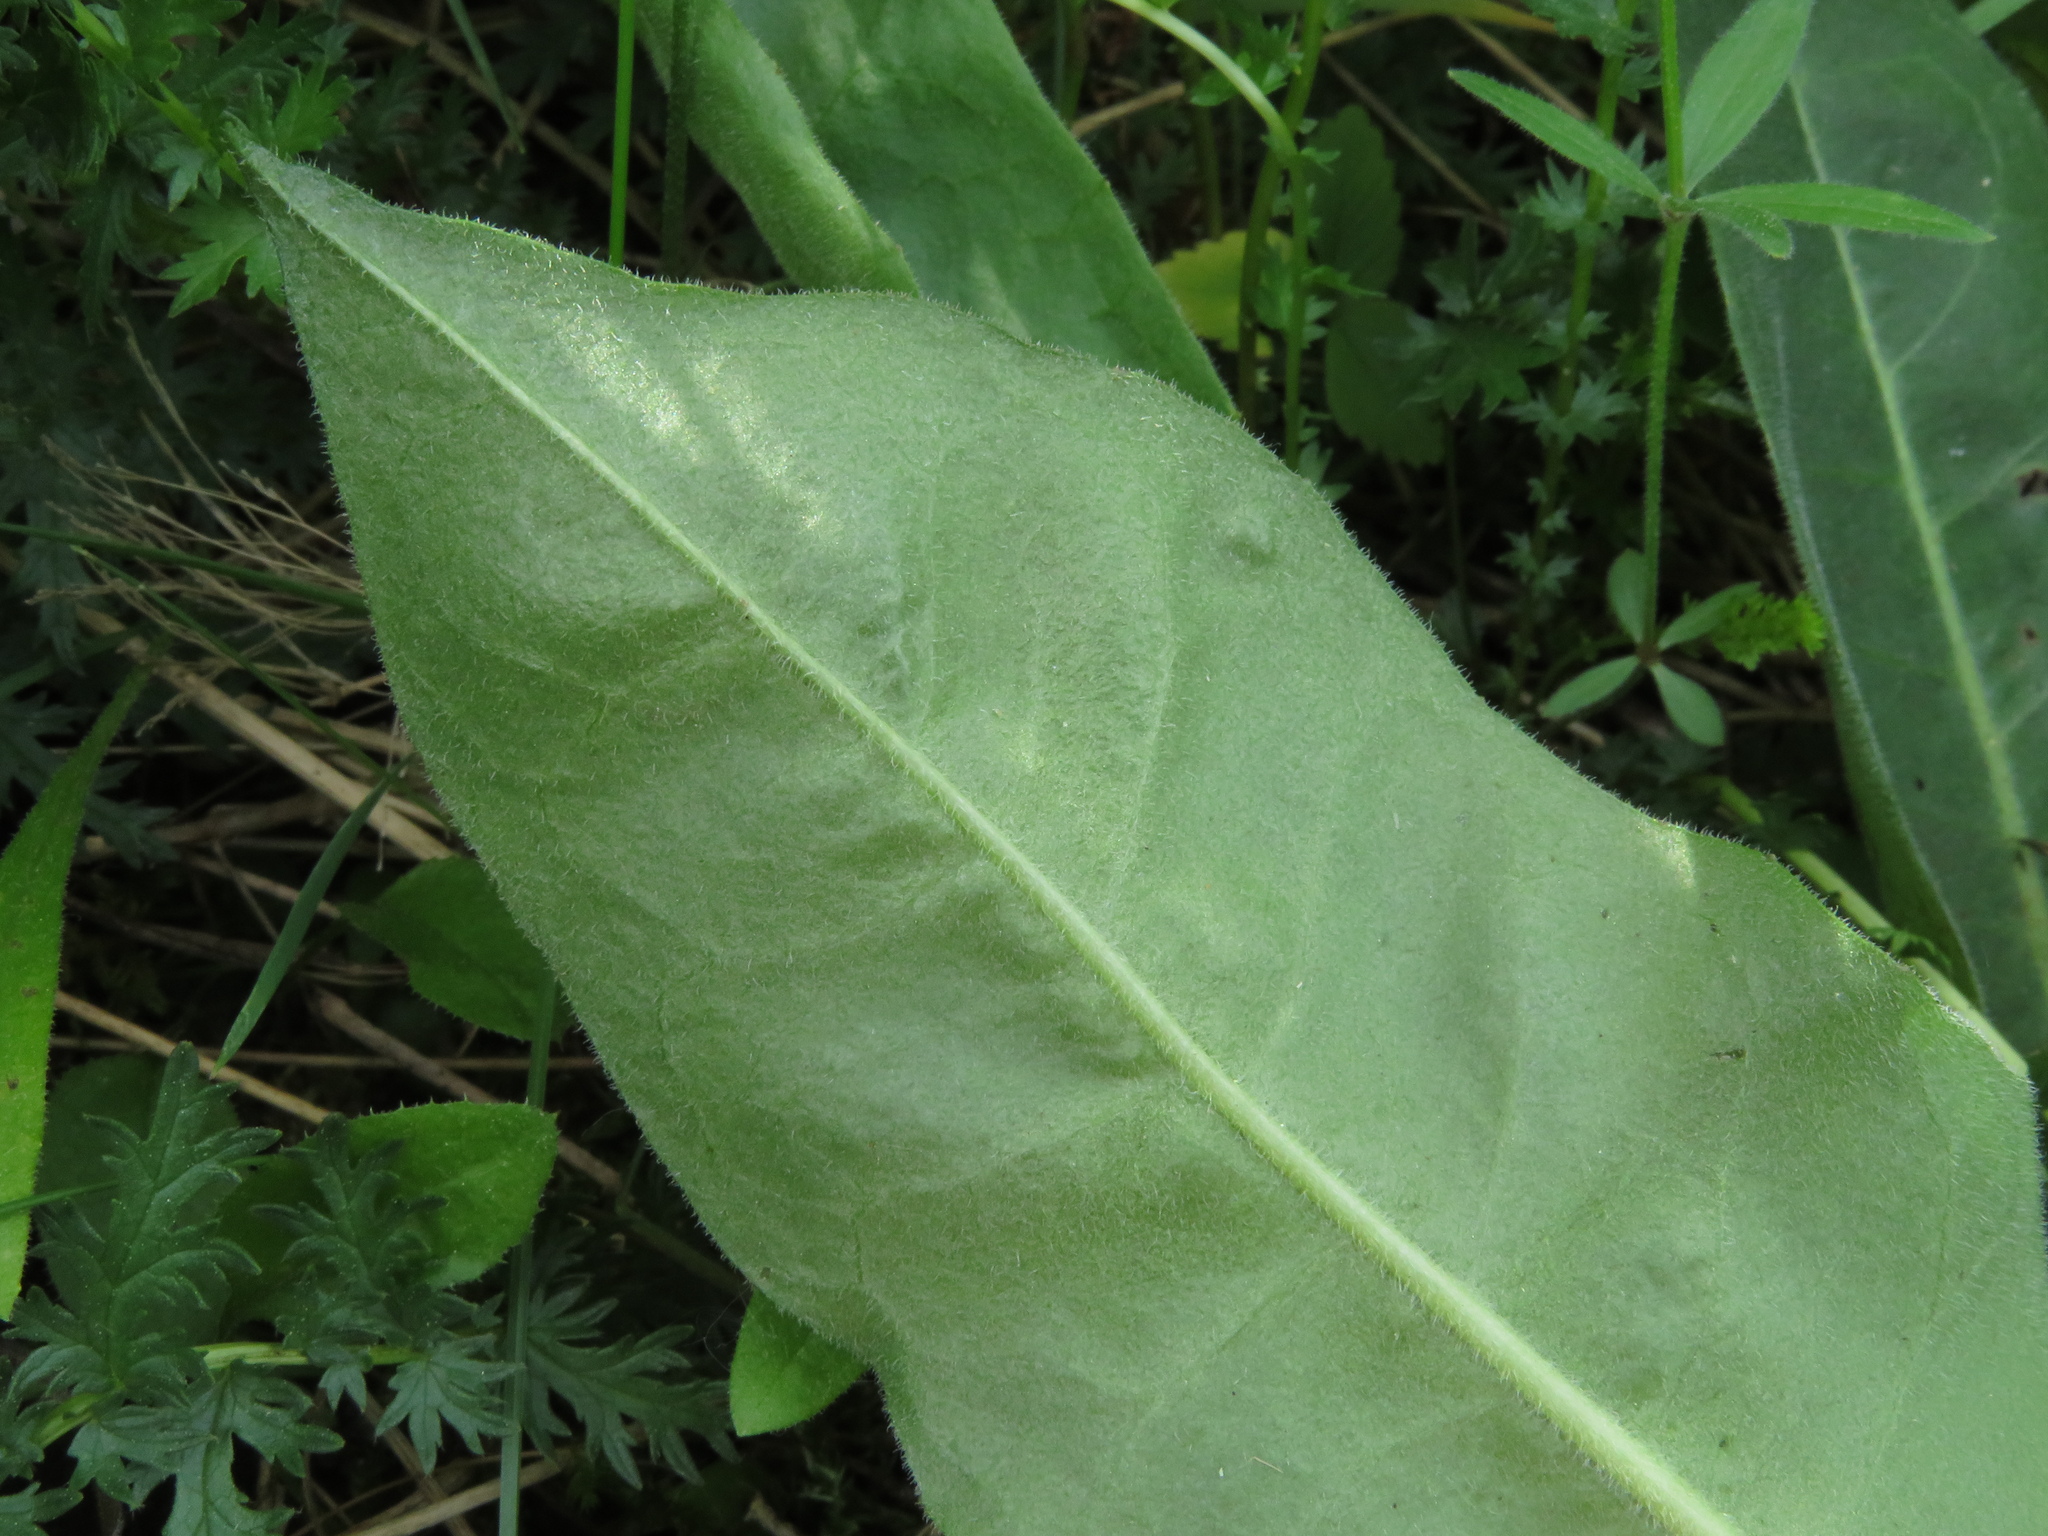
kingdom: Plantae
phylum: Tracheophyta
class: Magnoliopsida
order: Asterales
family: Asteraceae
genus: Crepis
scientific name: Crepis praemorsa
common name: Leafless hawk's-beard
